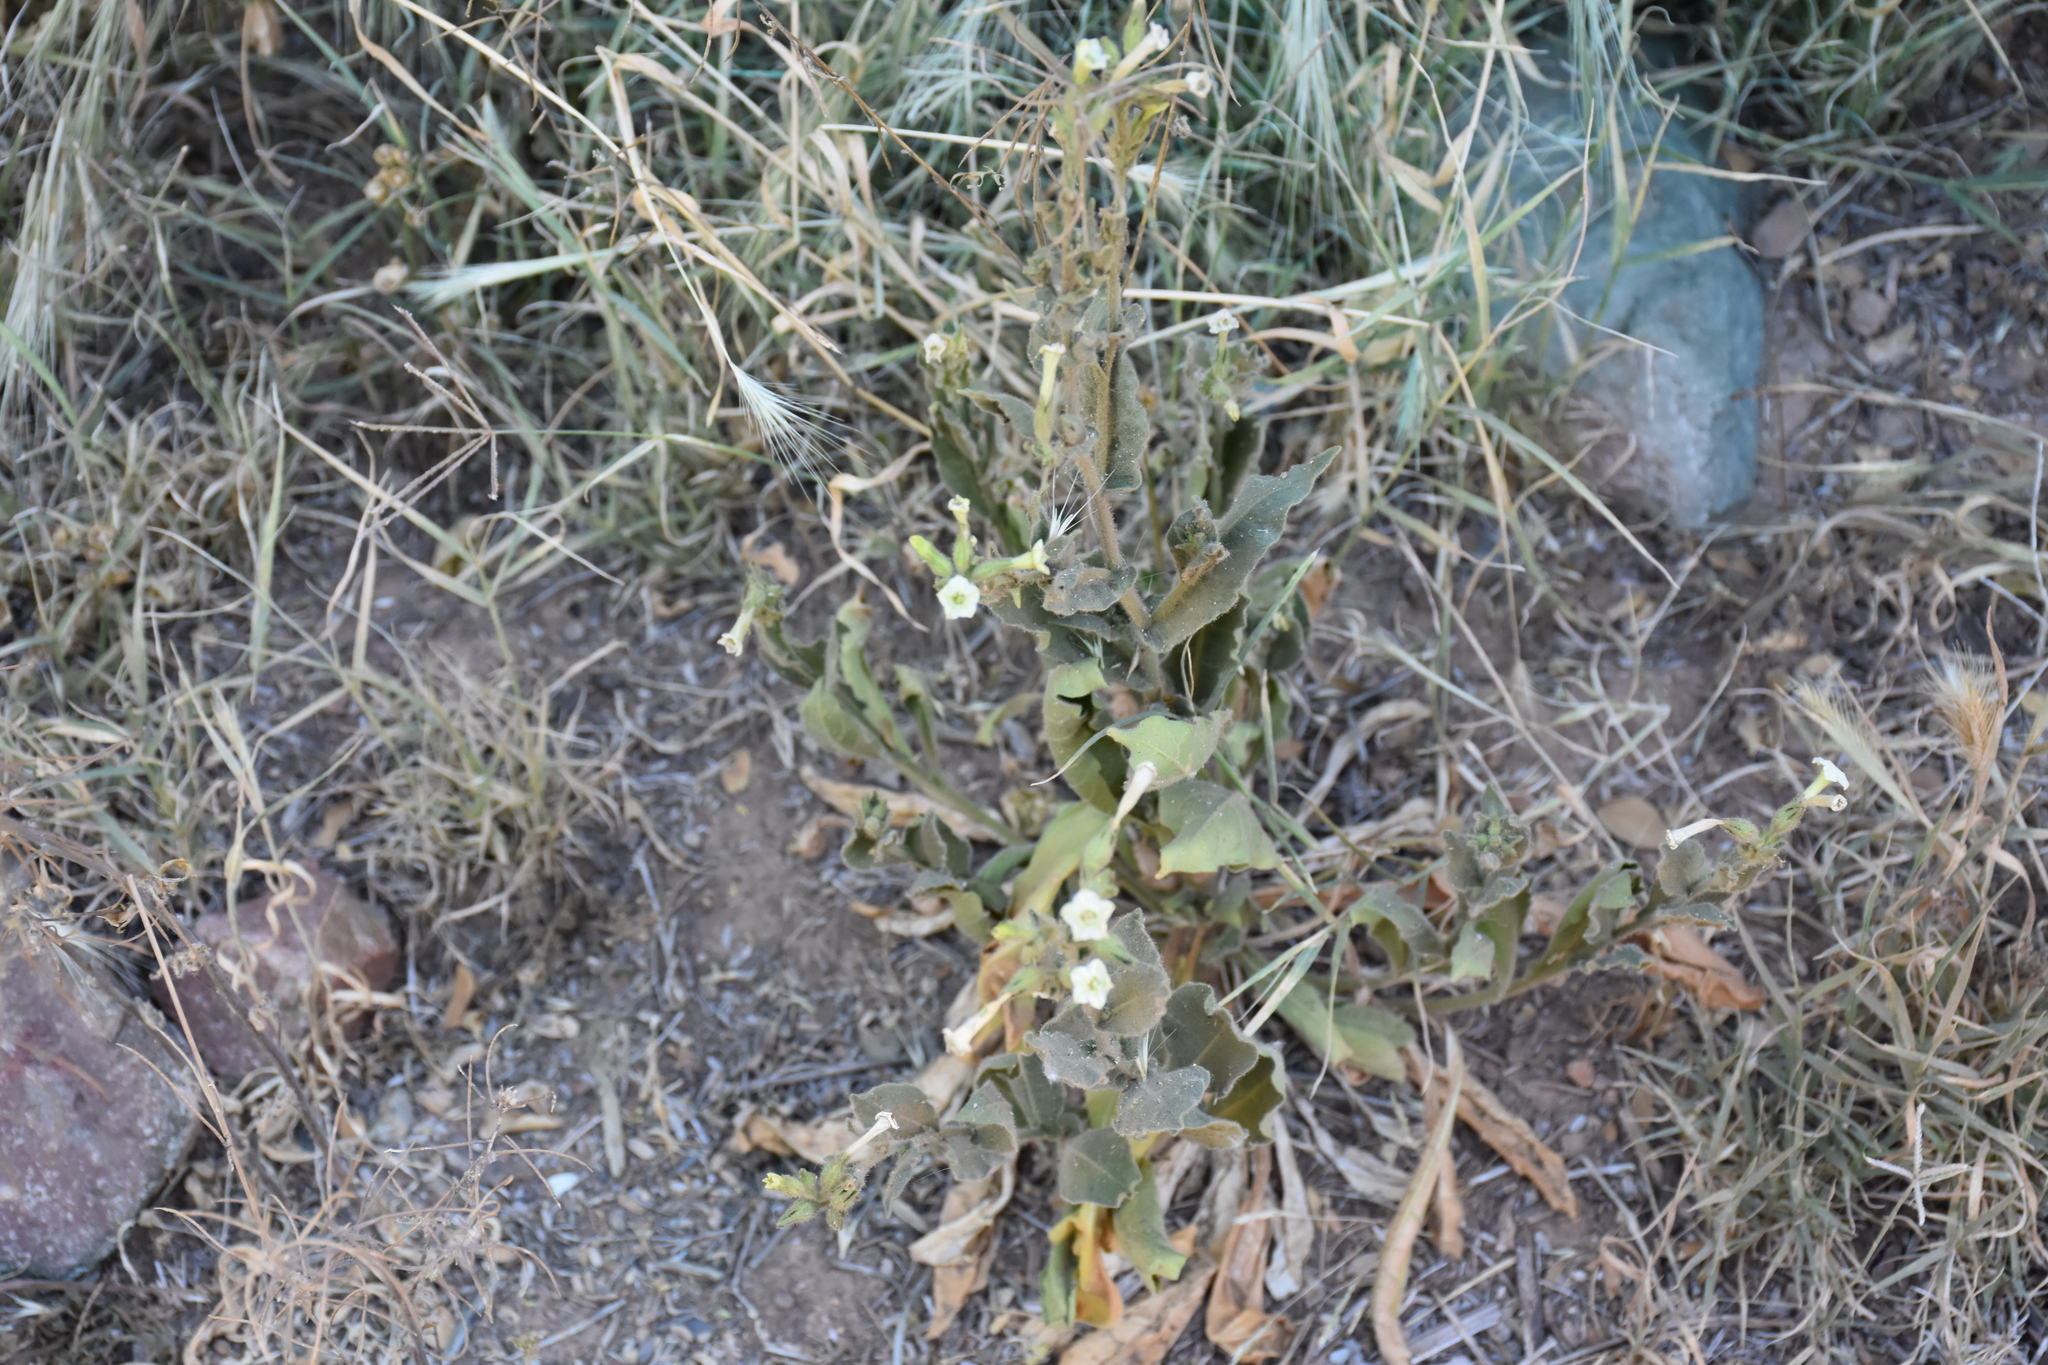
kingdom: Plantae
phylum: Tracheophyta
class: Magnoliopsida
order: Solanales
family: Solanaceae
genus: Nicotiana
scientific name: Nicotiana obtusifolia
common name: Desert tobacco
